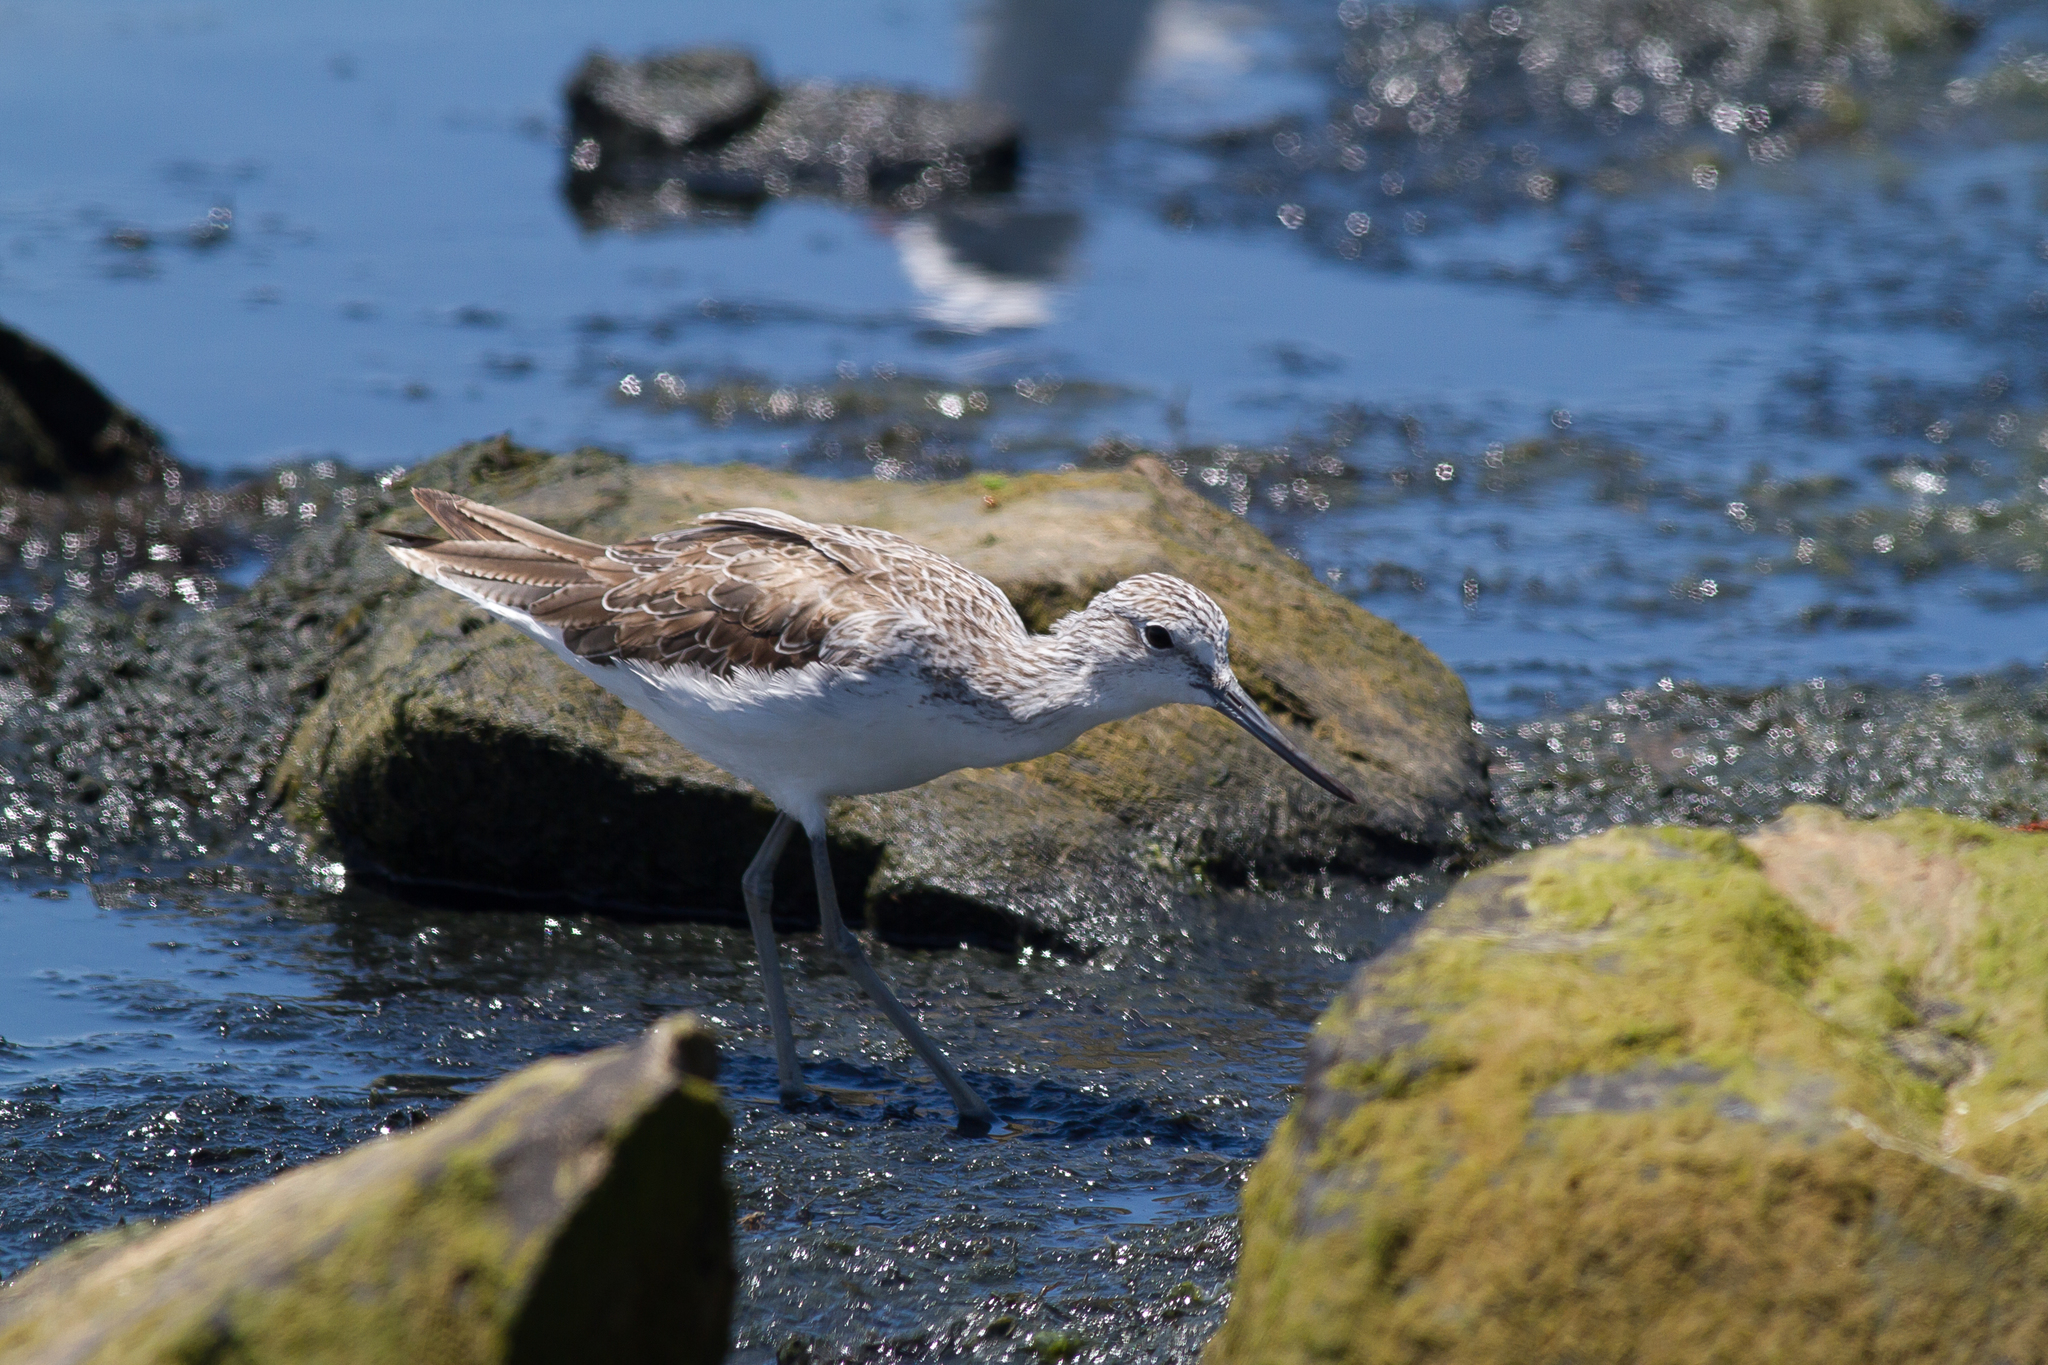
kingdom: Animalia
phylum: Chordata
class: Aves
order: Charadriiformes
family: Scolopacidae
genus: Tringa
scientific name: Tringa nebularia
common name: Common greenshank
